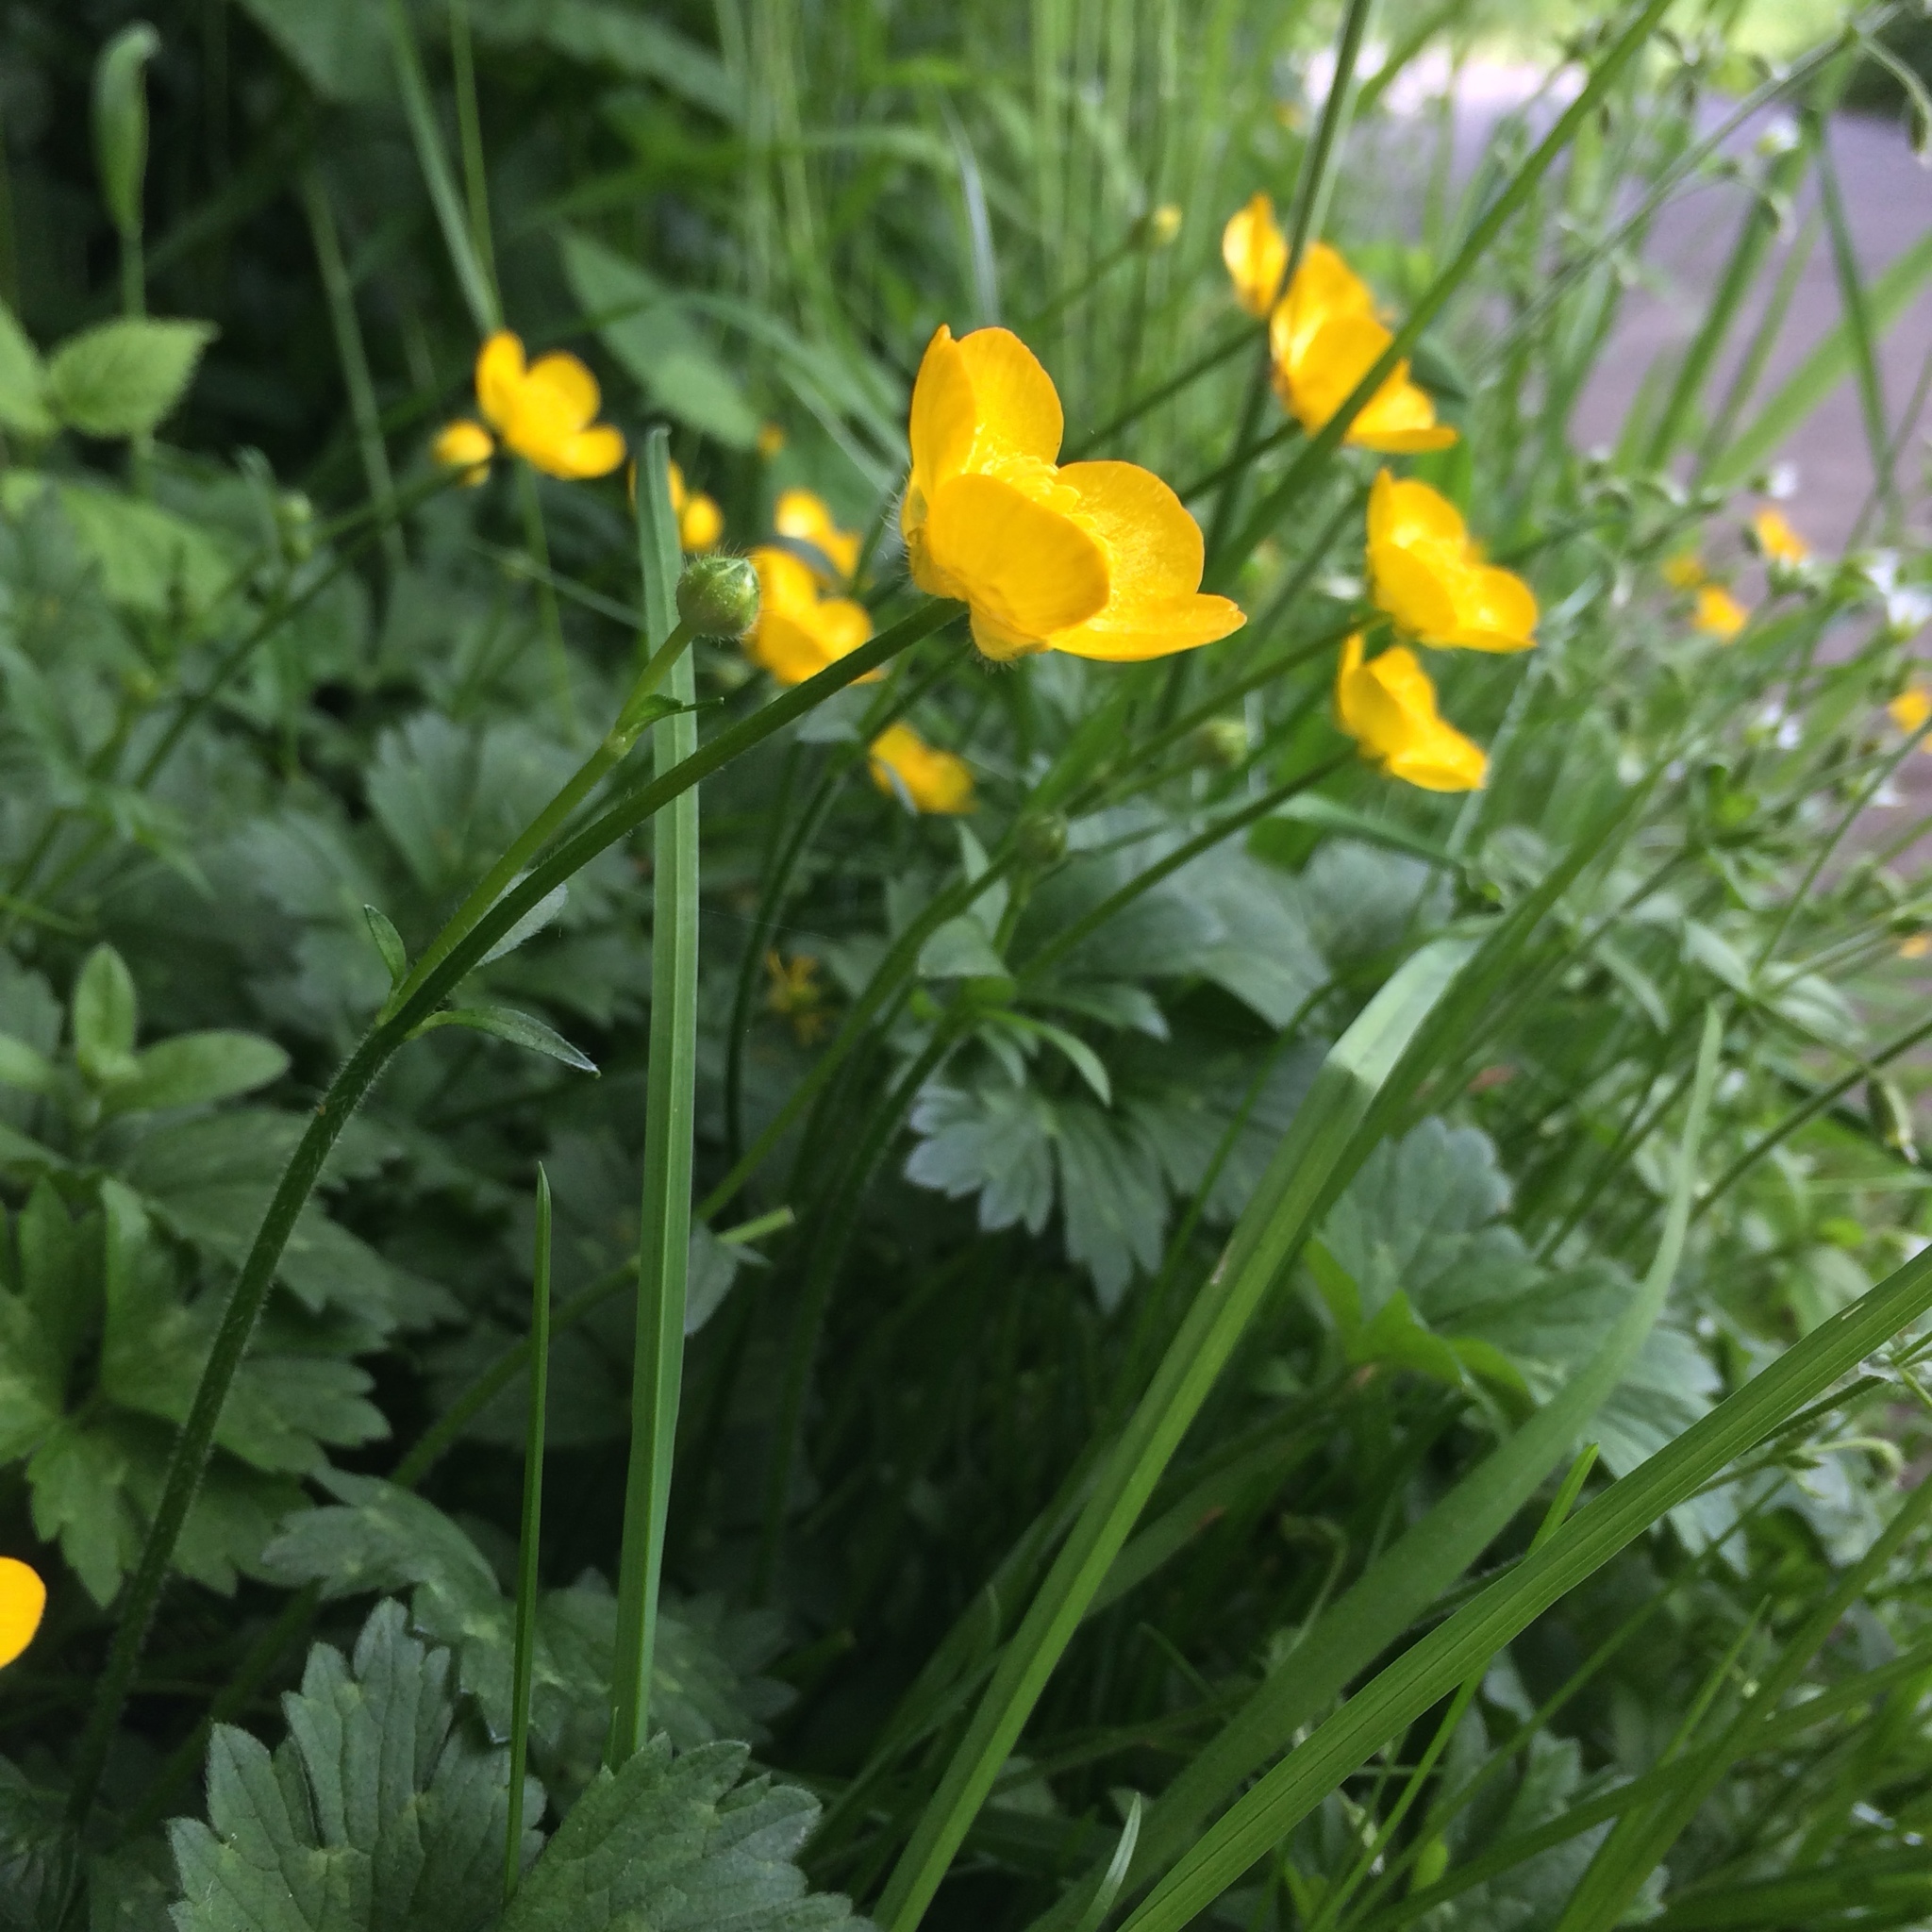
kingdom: Plantae
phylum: Tracheophyta
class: Magnoliopsida
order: Ranunculales
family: Ranunculaceae
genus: Ranunculus
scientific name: Ranunculus repens
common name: Creeping buttercup
